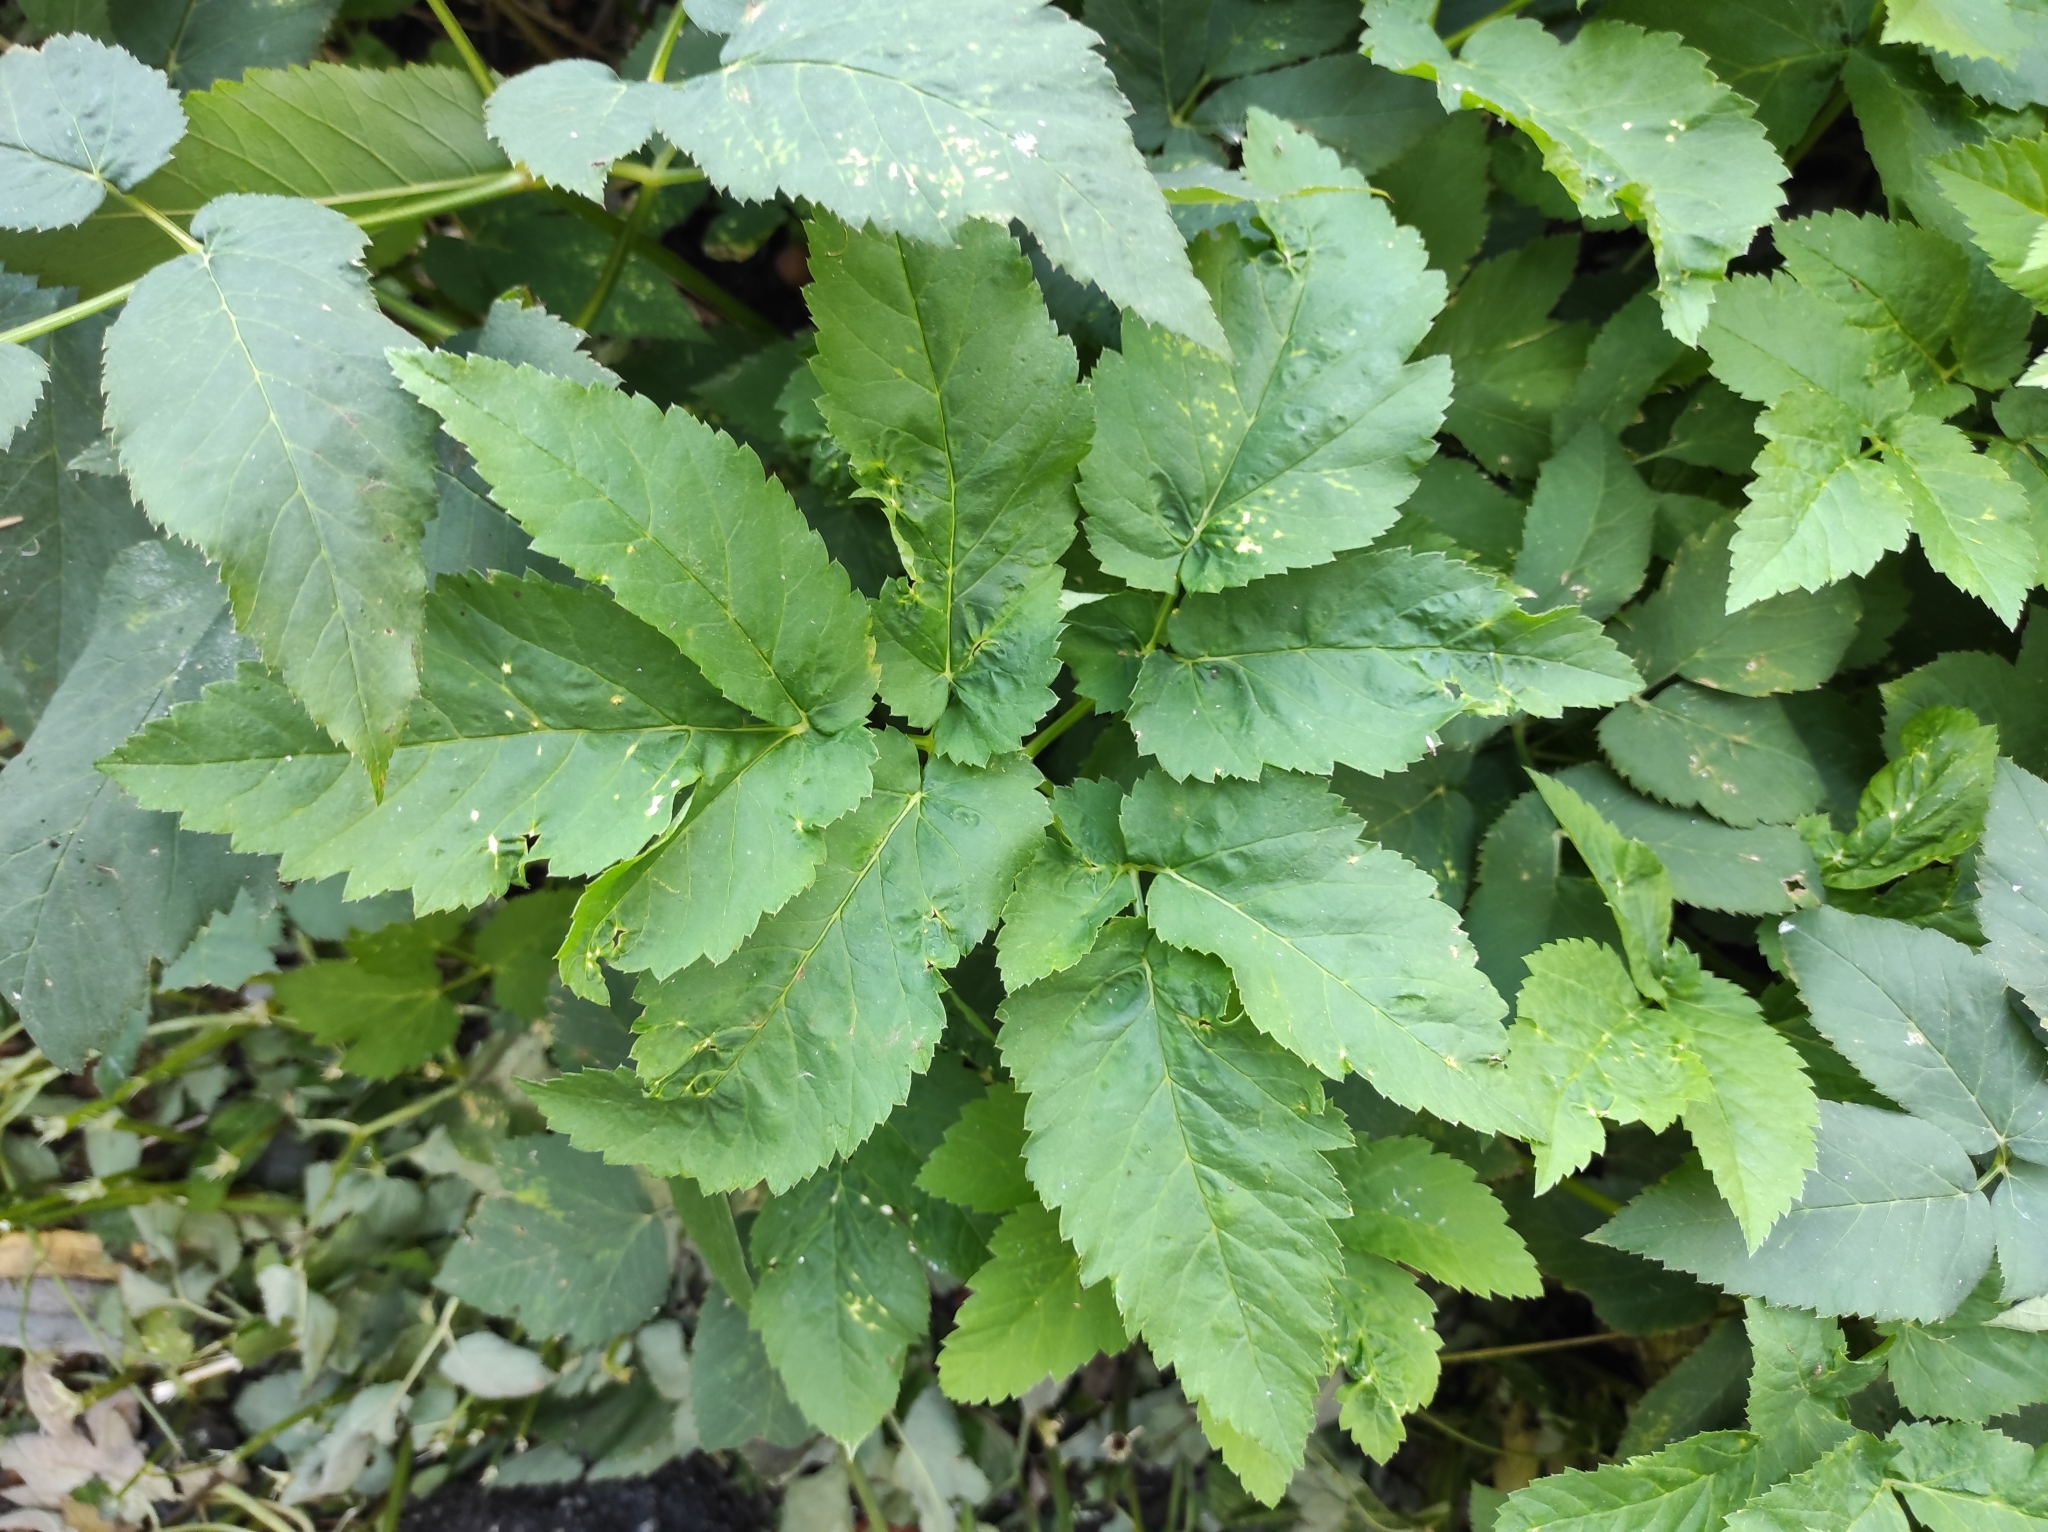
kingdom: Plantae
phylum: Tracheophyta
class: Magnoliopsida
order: Apiales
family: Apiaceae
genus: Aegopodium
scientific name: Aegopodium podagraria
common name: Ground-elder
